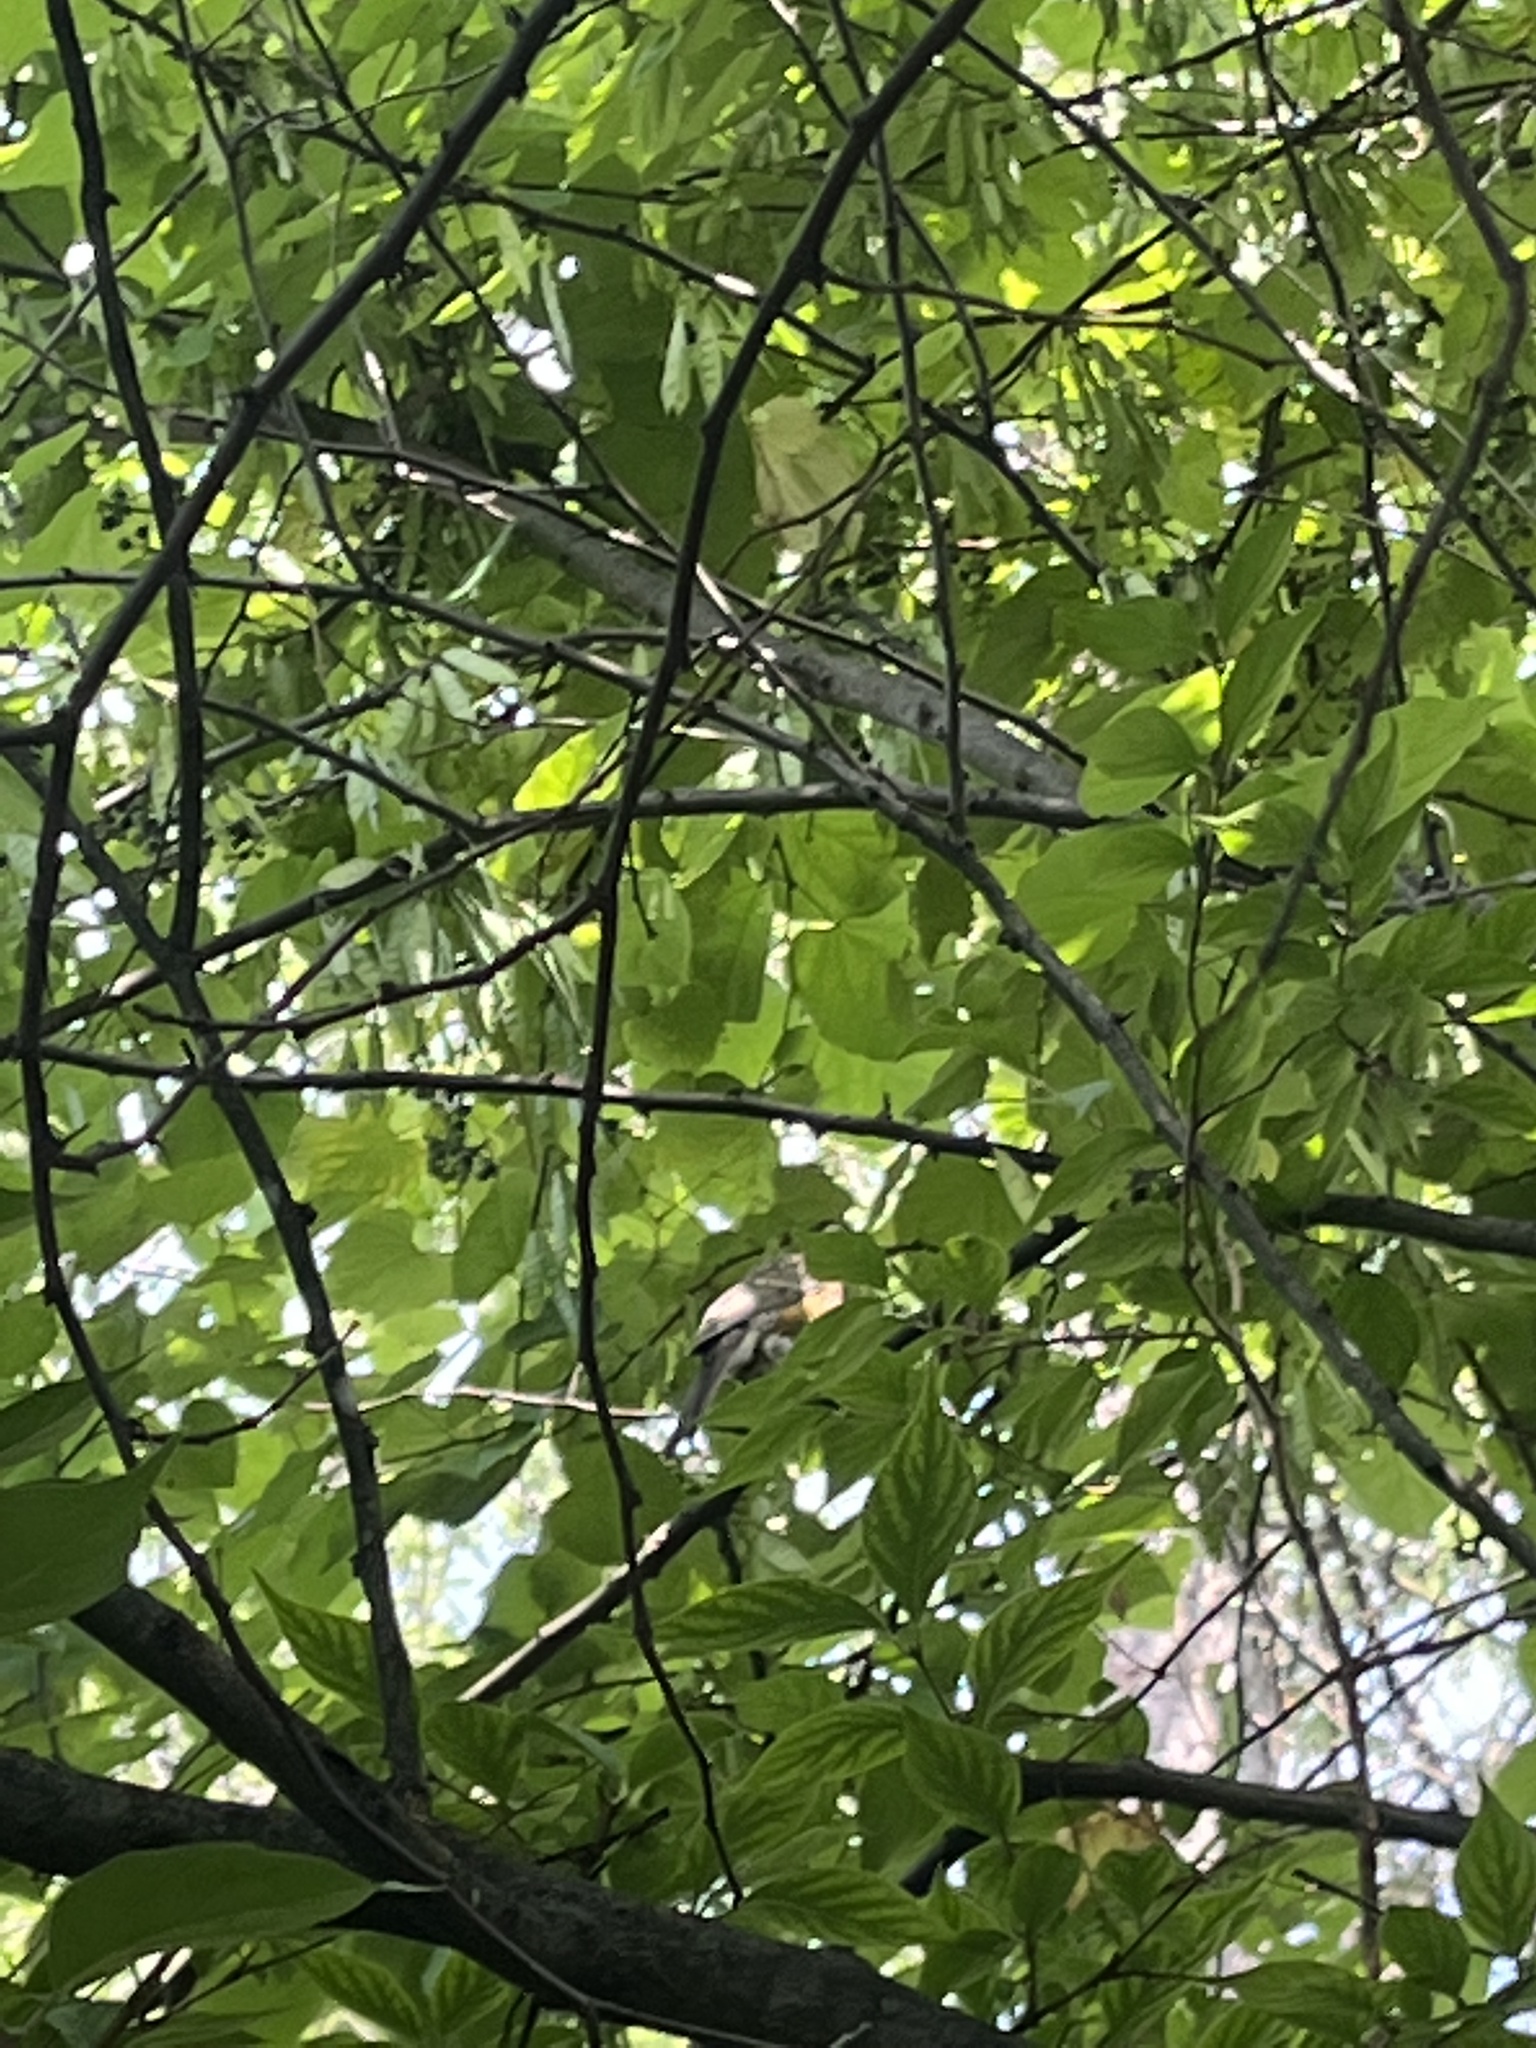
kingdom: Animalia
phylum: Chordata
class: Aves
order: Passeriformes
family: Turdidae
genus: Turdus
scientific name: Turdus migratorius
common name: American robin
